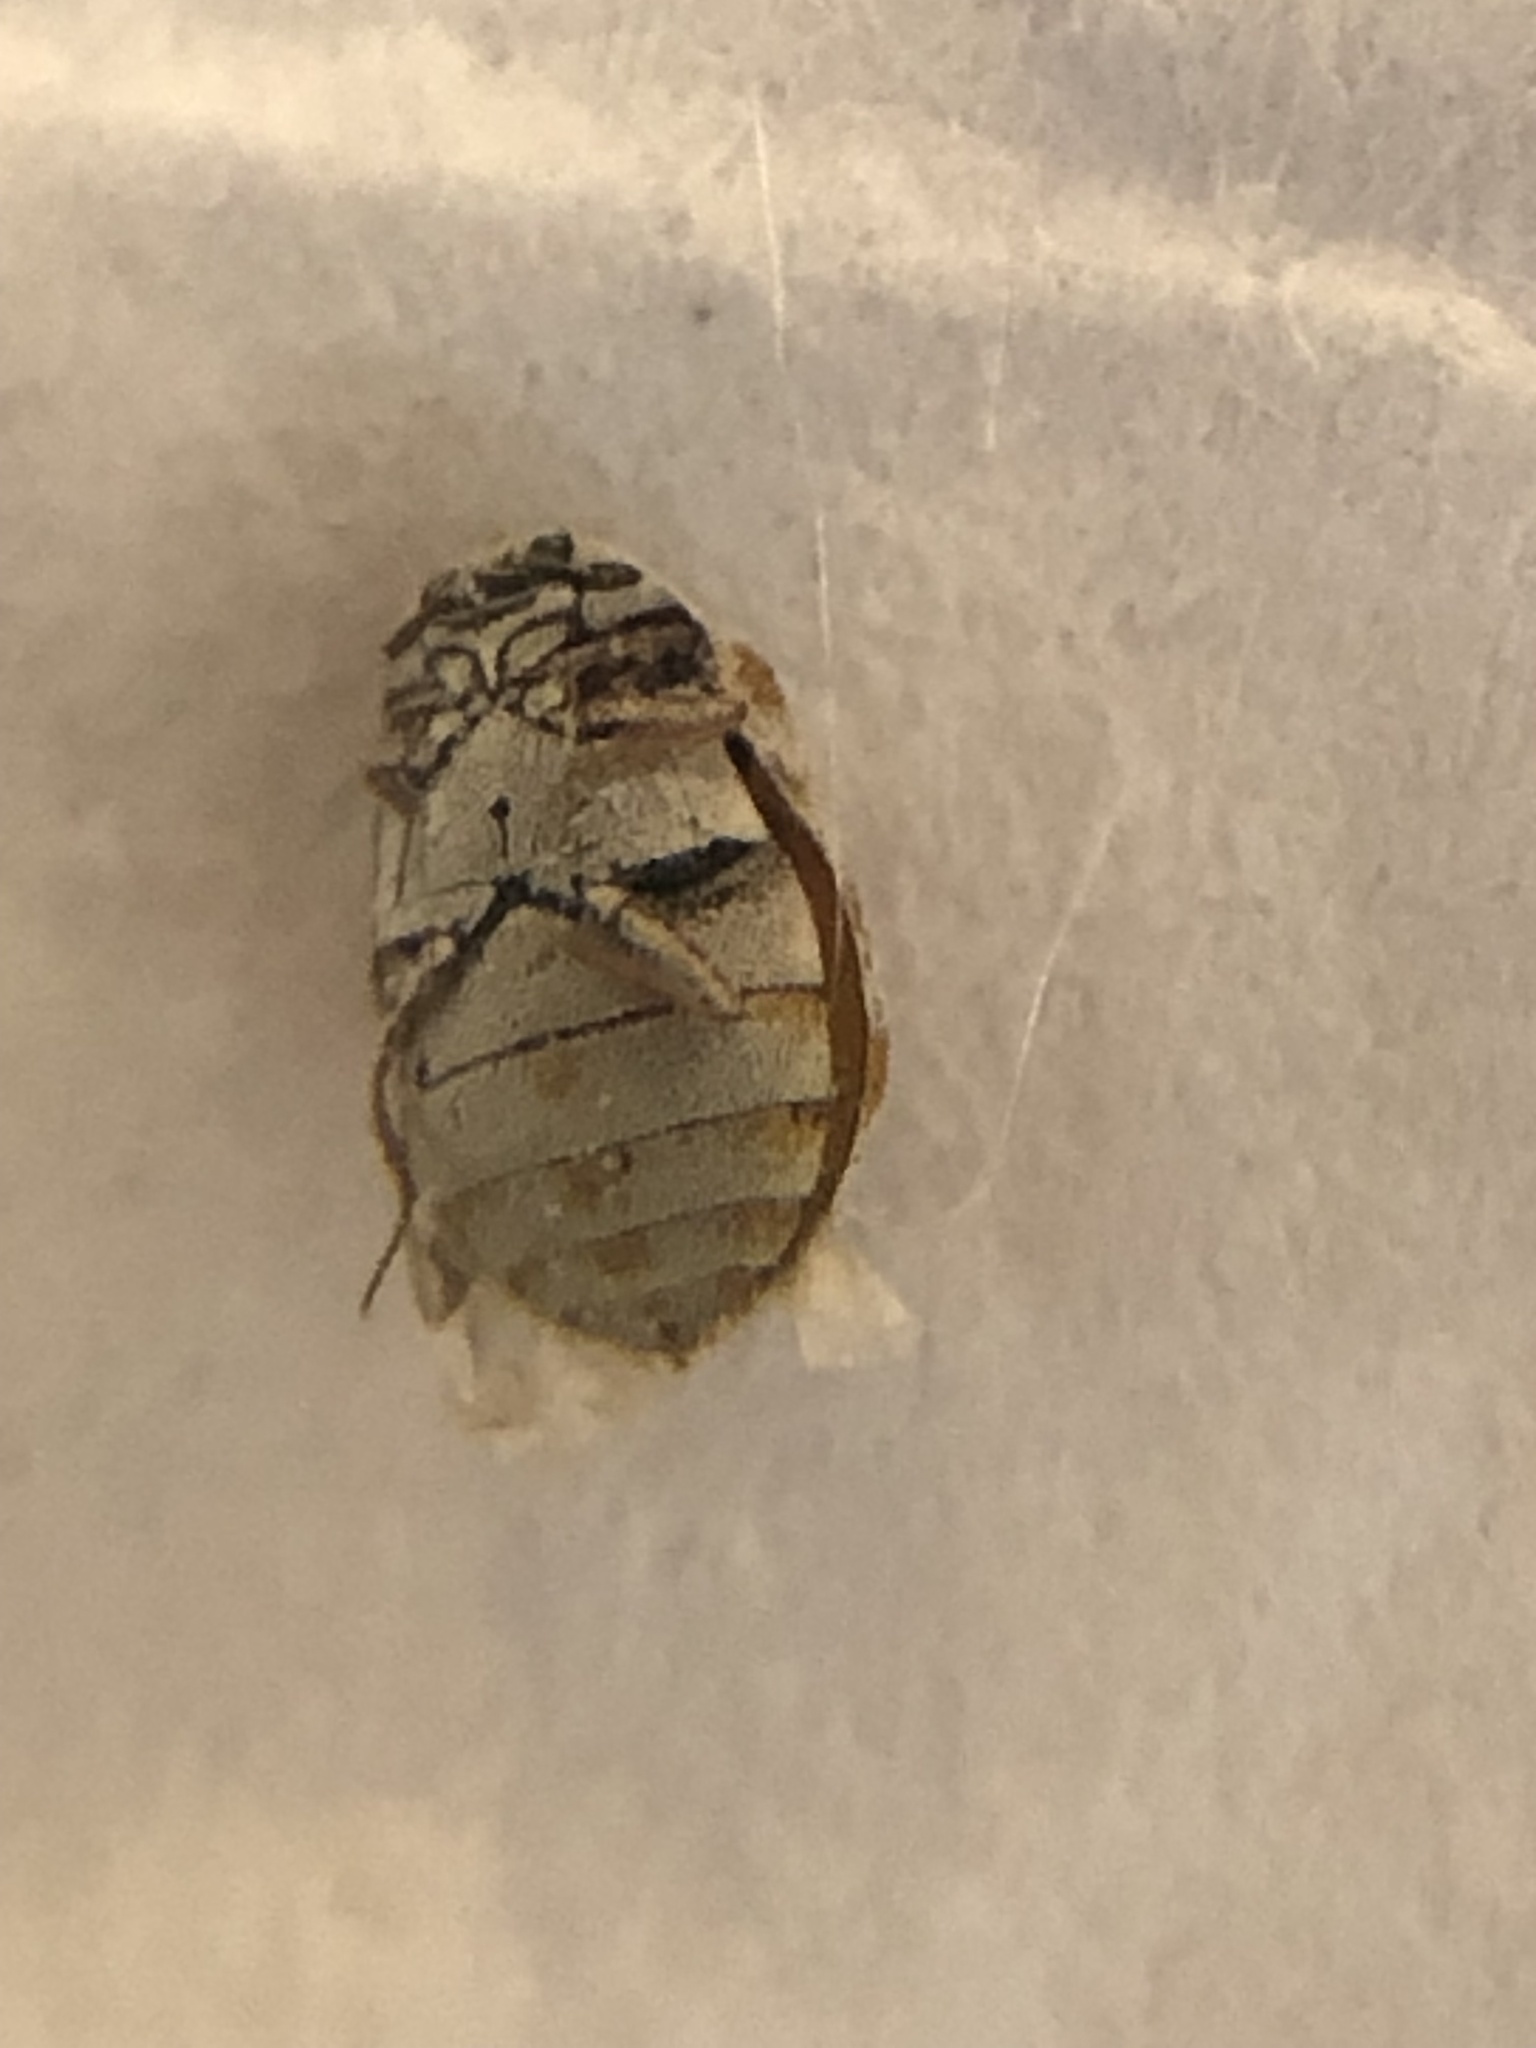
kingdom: Animalia
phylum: Arthropoda
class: Insecta
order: Coleoptera
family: Dermestidae
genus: Anthrenus
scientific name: Anthrenus coloratus
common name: Auger beetle
